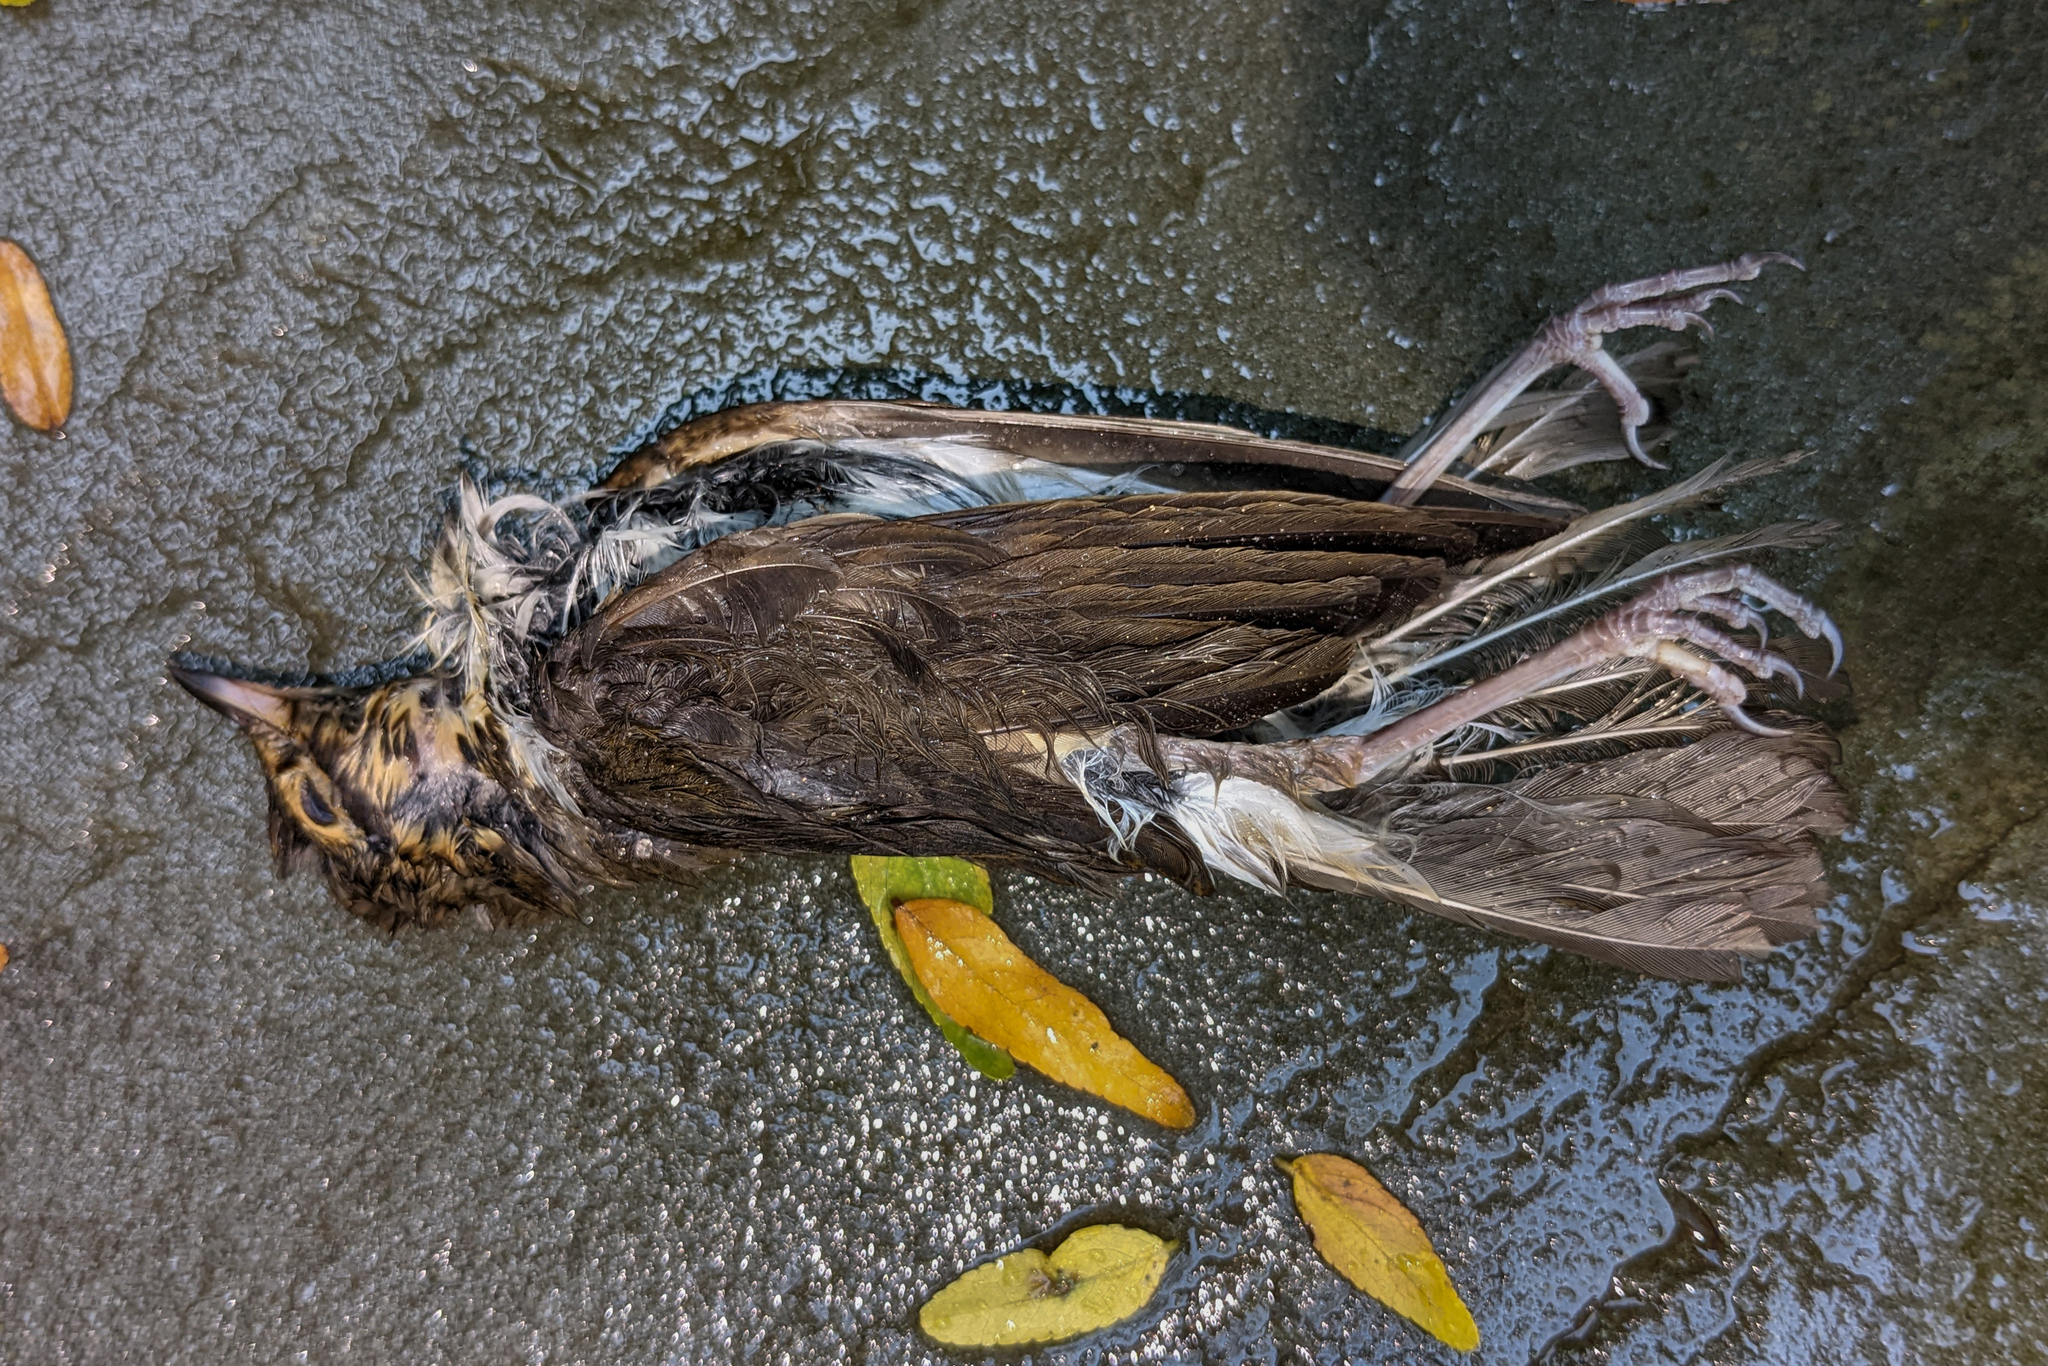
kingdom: Animalia
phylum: Chordata
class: Aves
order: Passeriformes
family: Turdidae
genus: Catharus
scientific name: Catharus ustulatus
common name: Swainson's thrush
